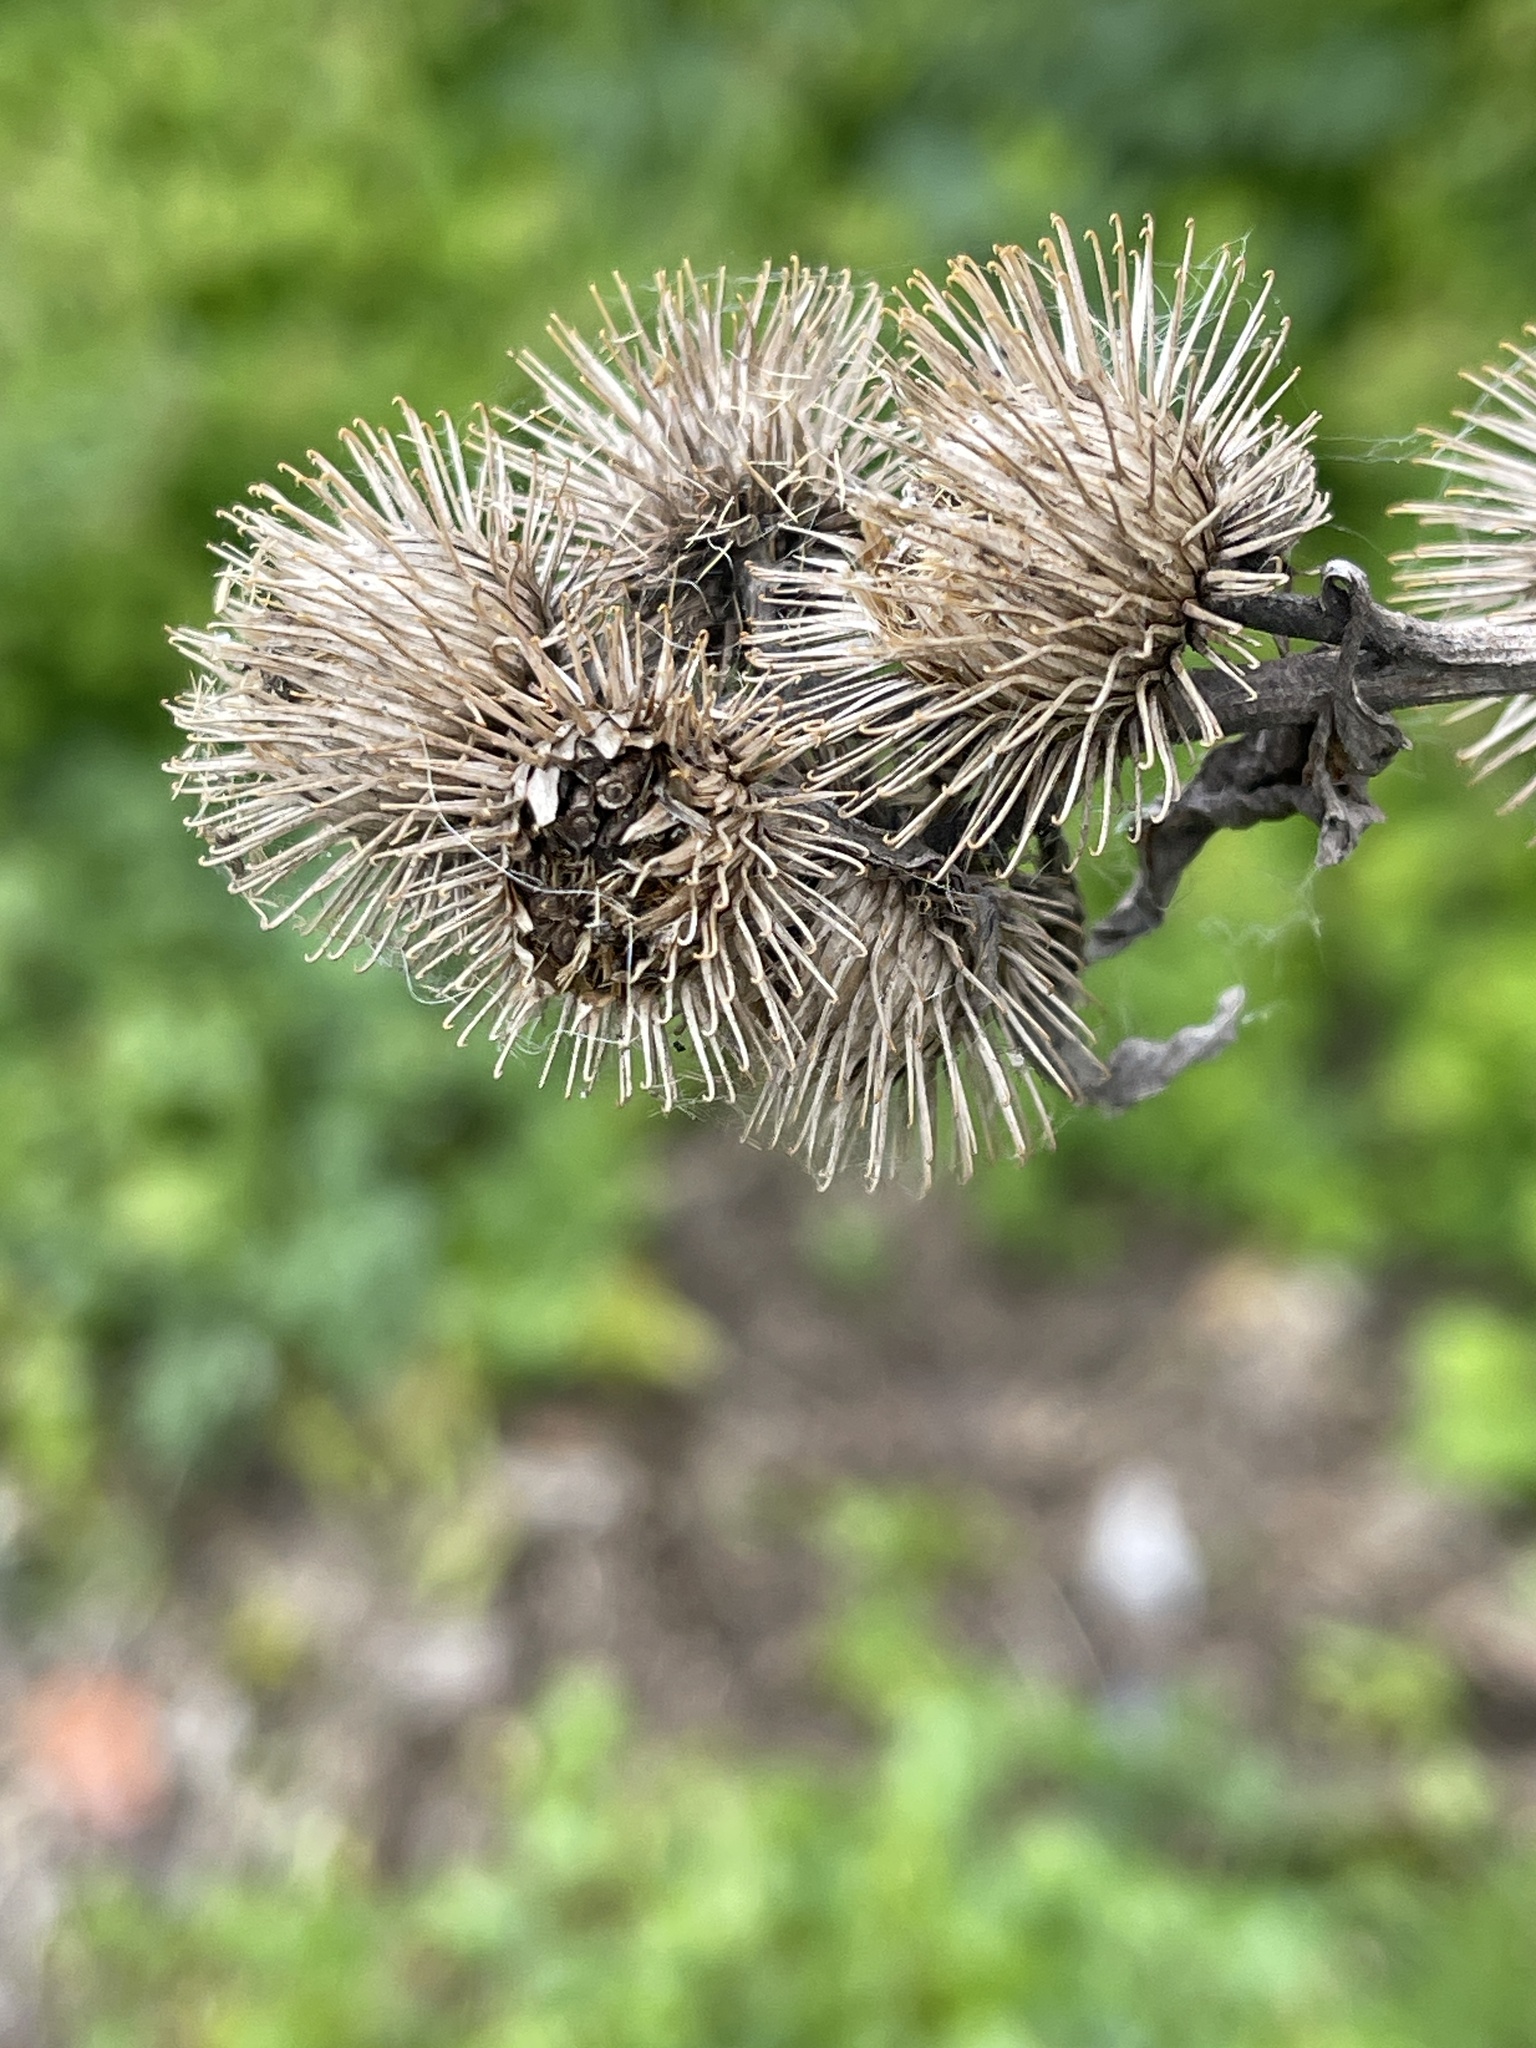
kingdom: Plantae
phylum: Tracheophyta
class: Magnoliopsida
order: Asterales
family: Asteraceae
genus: Arctium
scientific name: Arctium minus
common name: Lesser burdock
